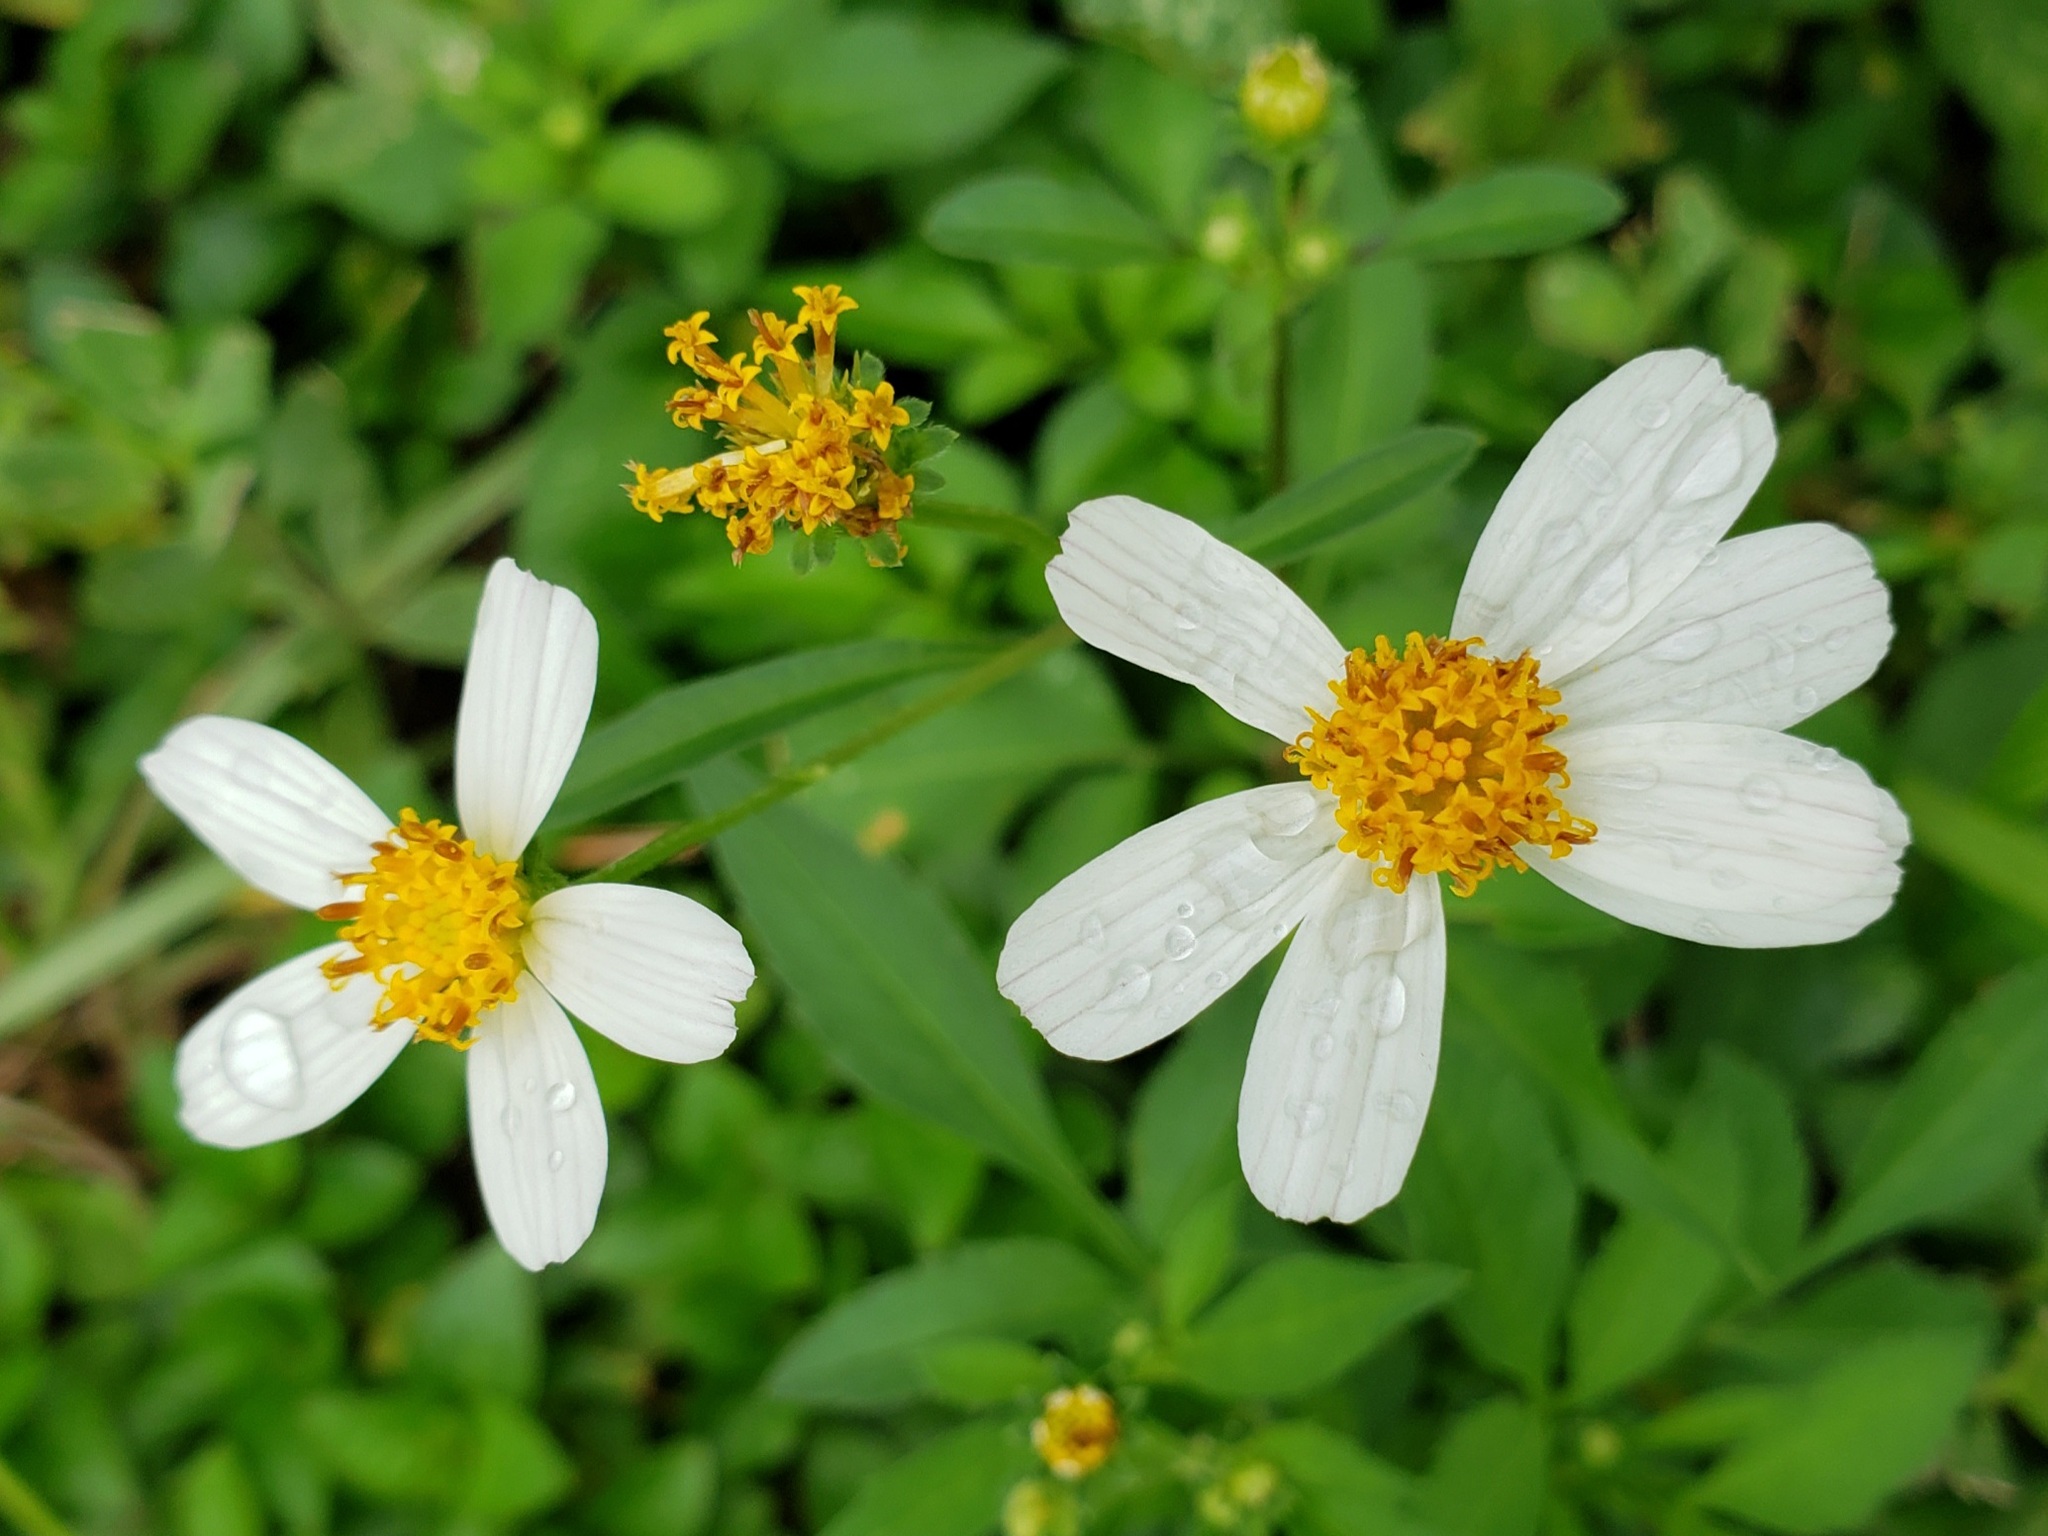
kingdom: Plantae
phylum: Tracheophyta
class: Magnoliopsida
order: Asterales
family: Asteraceae
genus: Bidens
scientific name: Bidens alba
